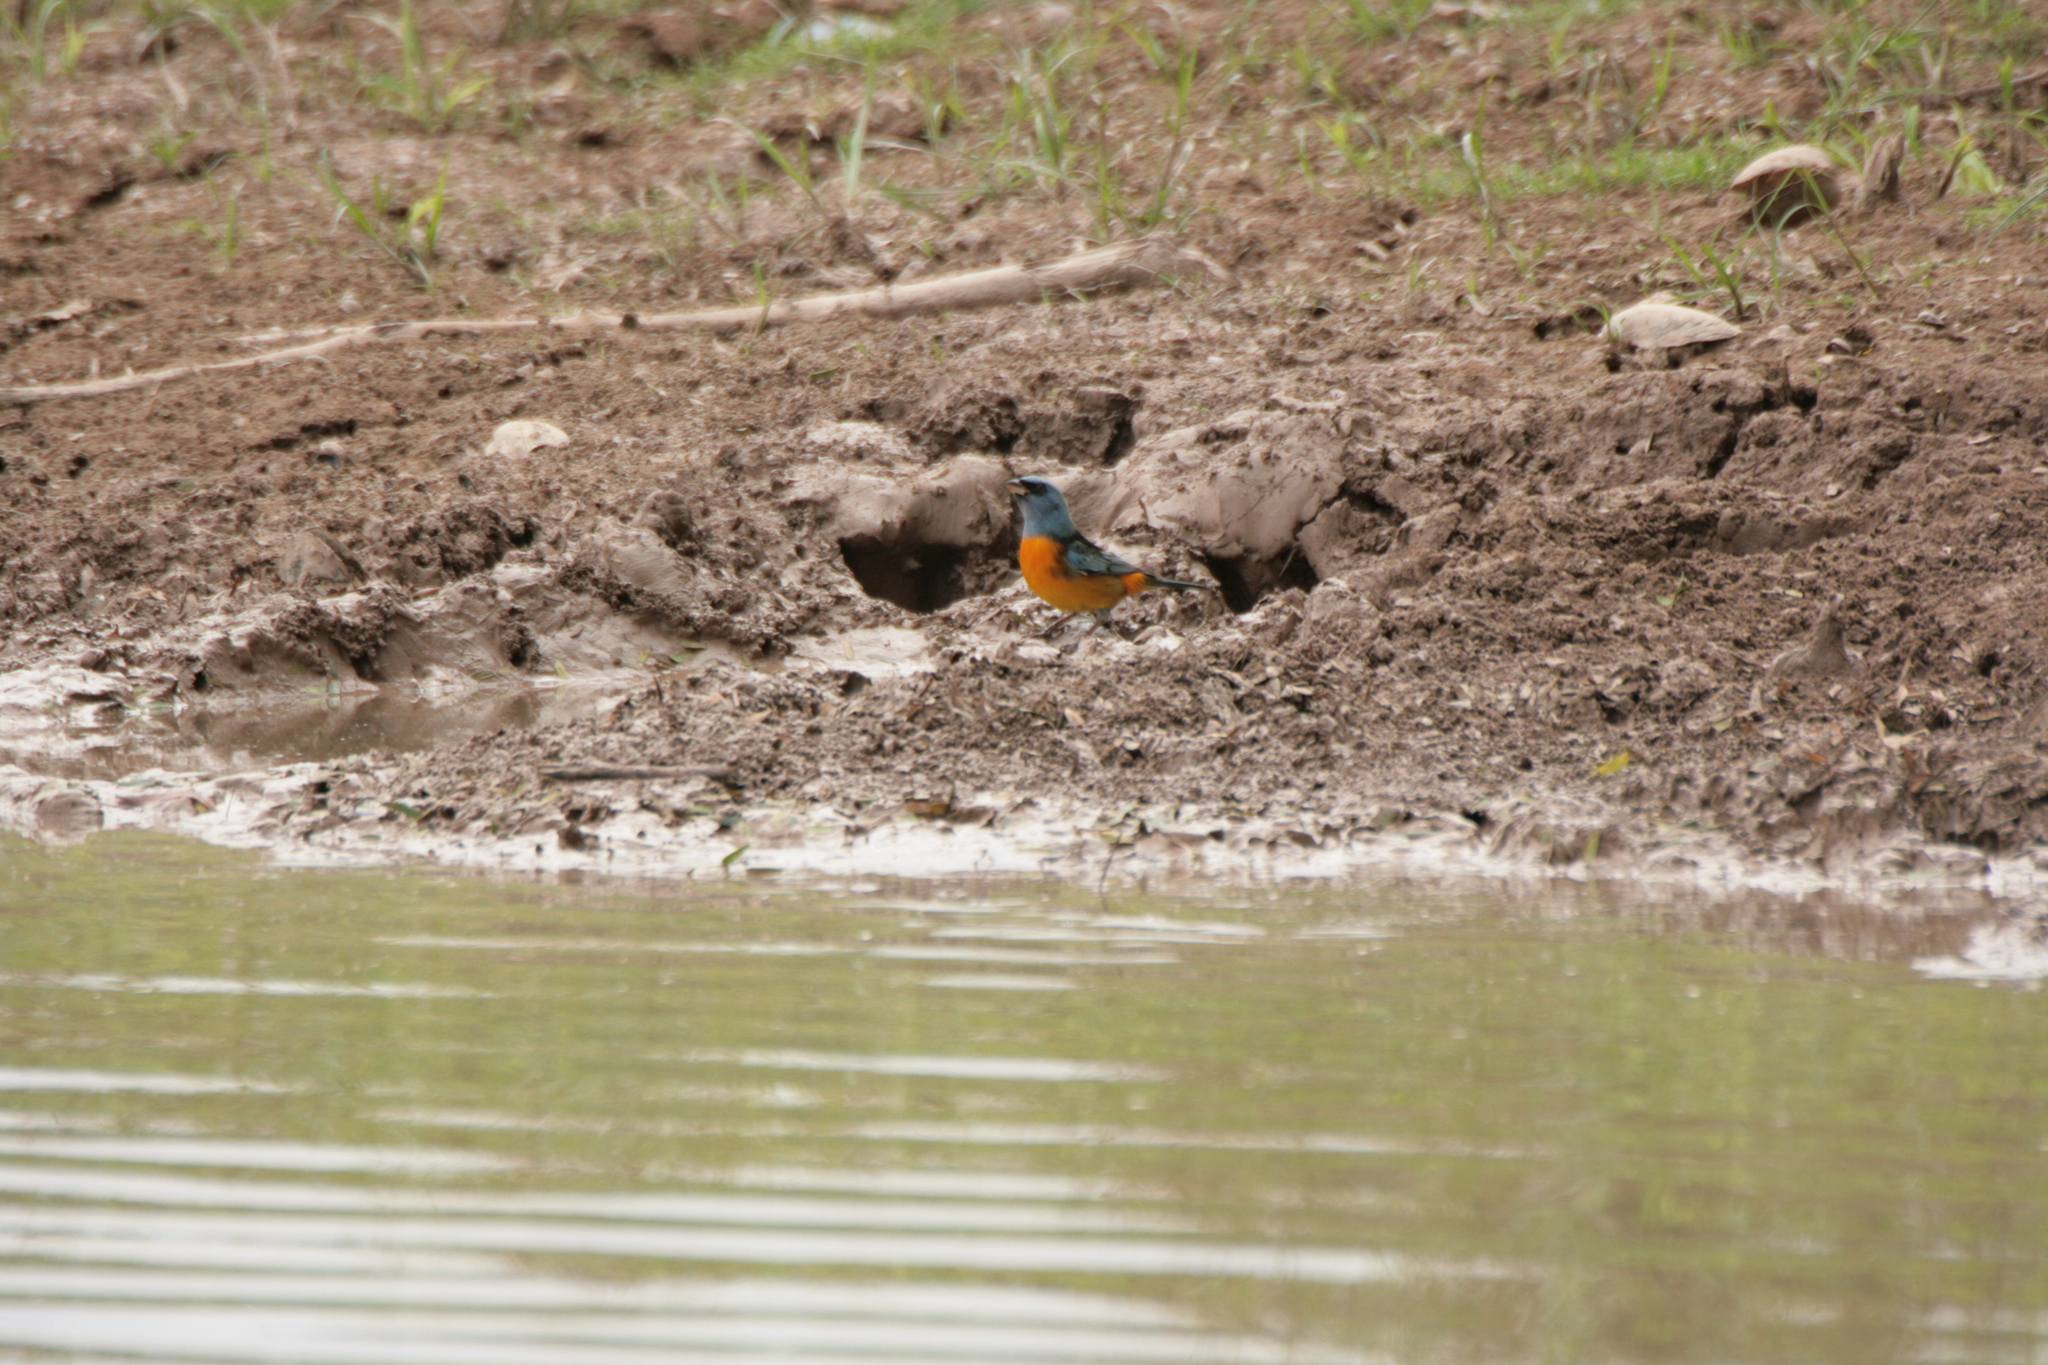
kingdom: Animalia
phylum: Chordata
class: Aves
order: Passeriformes
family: Thraupidae
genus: Rauenia
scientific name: Rauenia bonariensis
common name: Blue-and-yellow tanager
